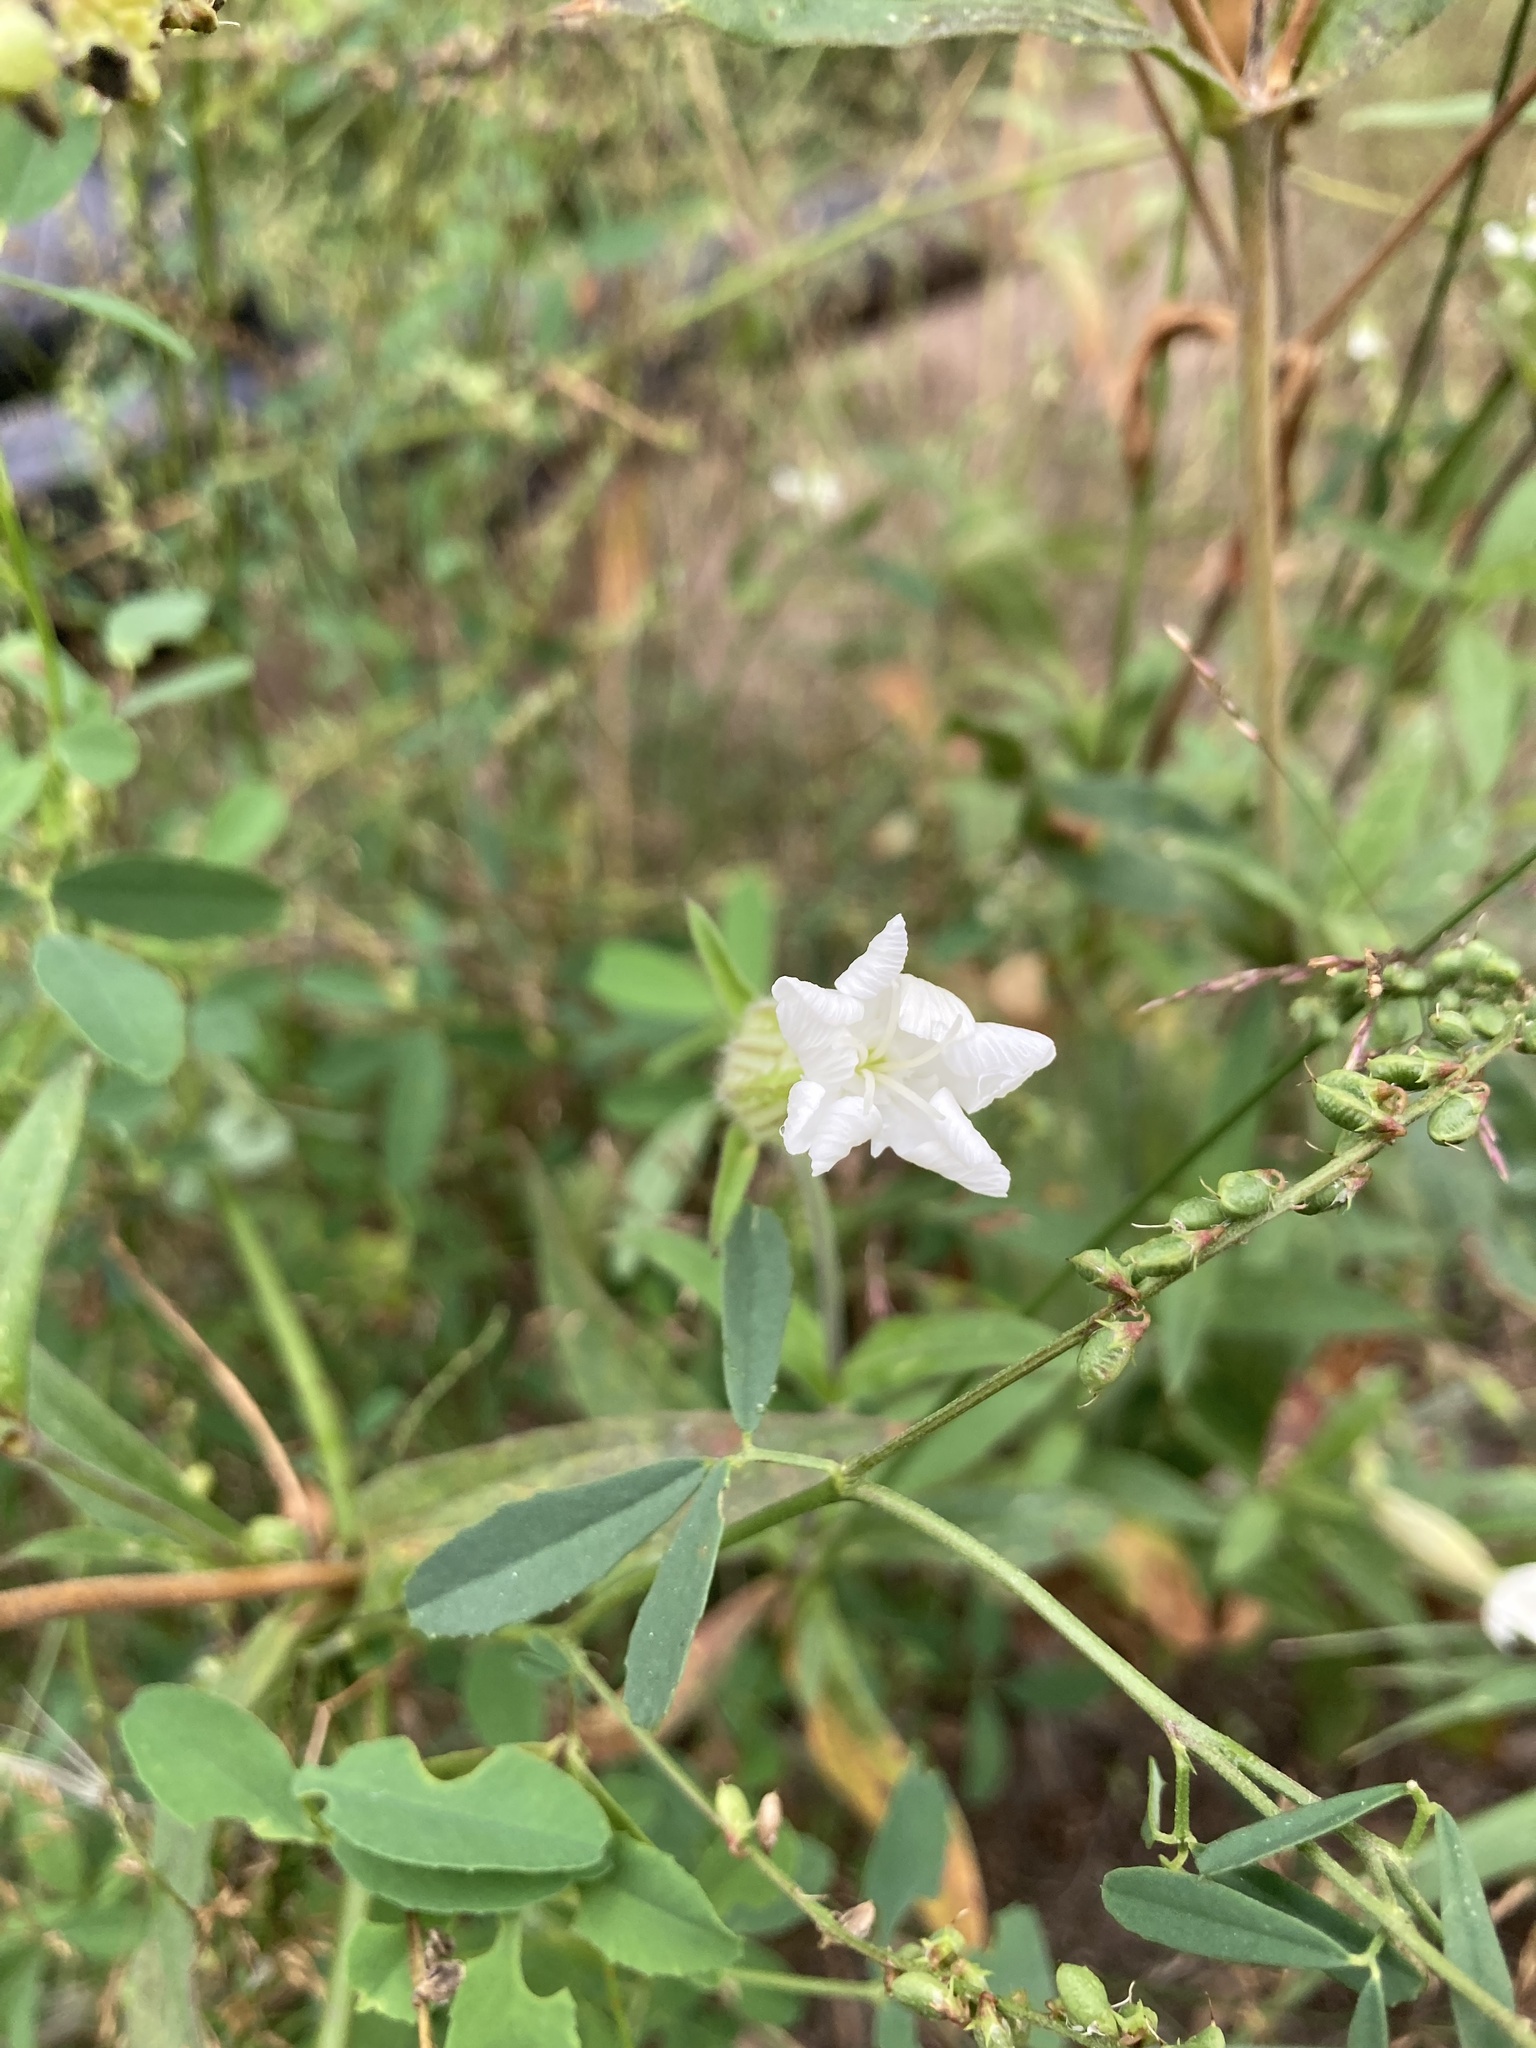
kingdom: Plantae
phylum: Tracheophyta
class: Magnoliopsida
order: Caryophyllales
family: Caryophyllaceae
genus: Silene
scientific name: Silene latifolia
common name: White campion
